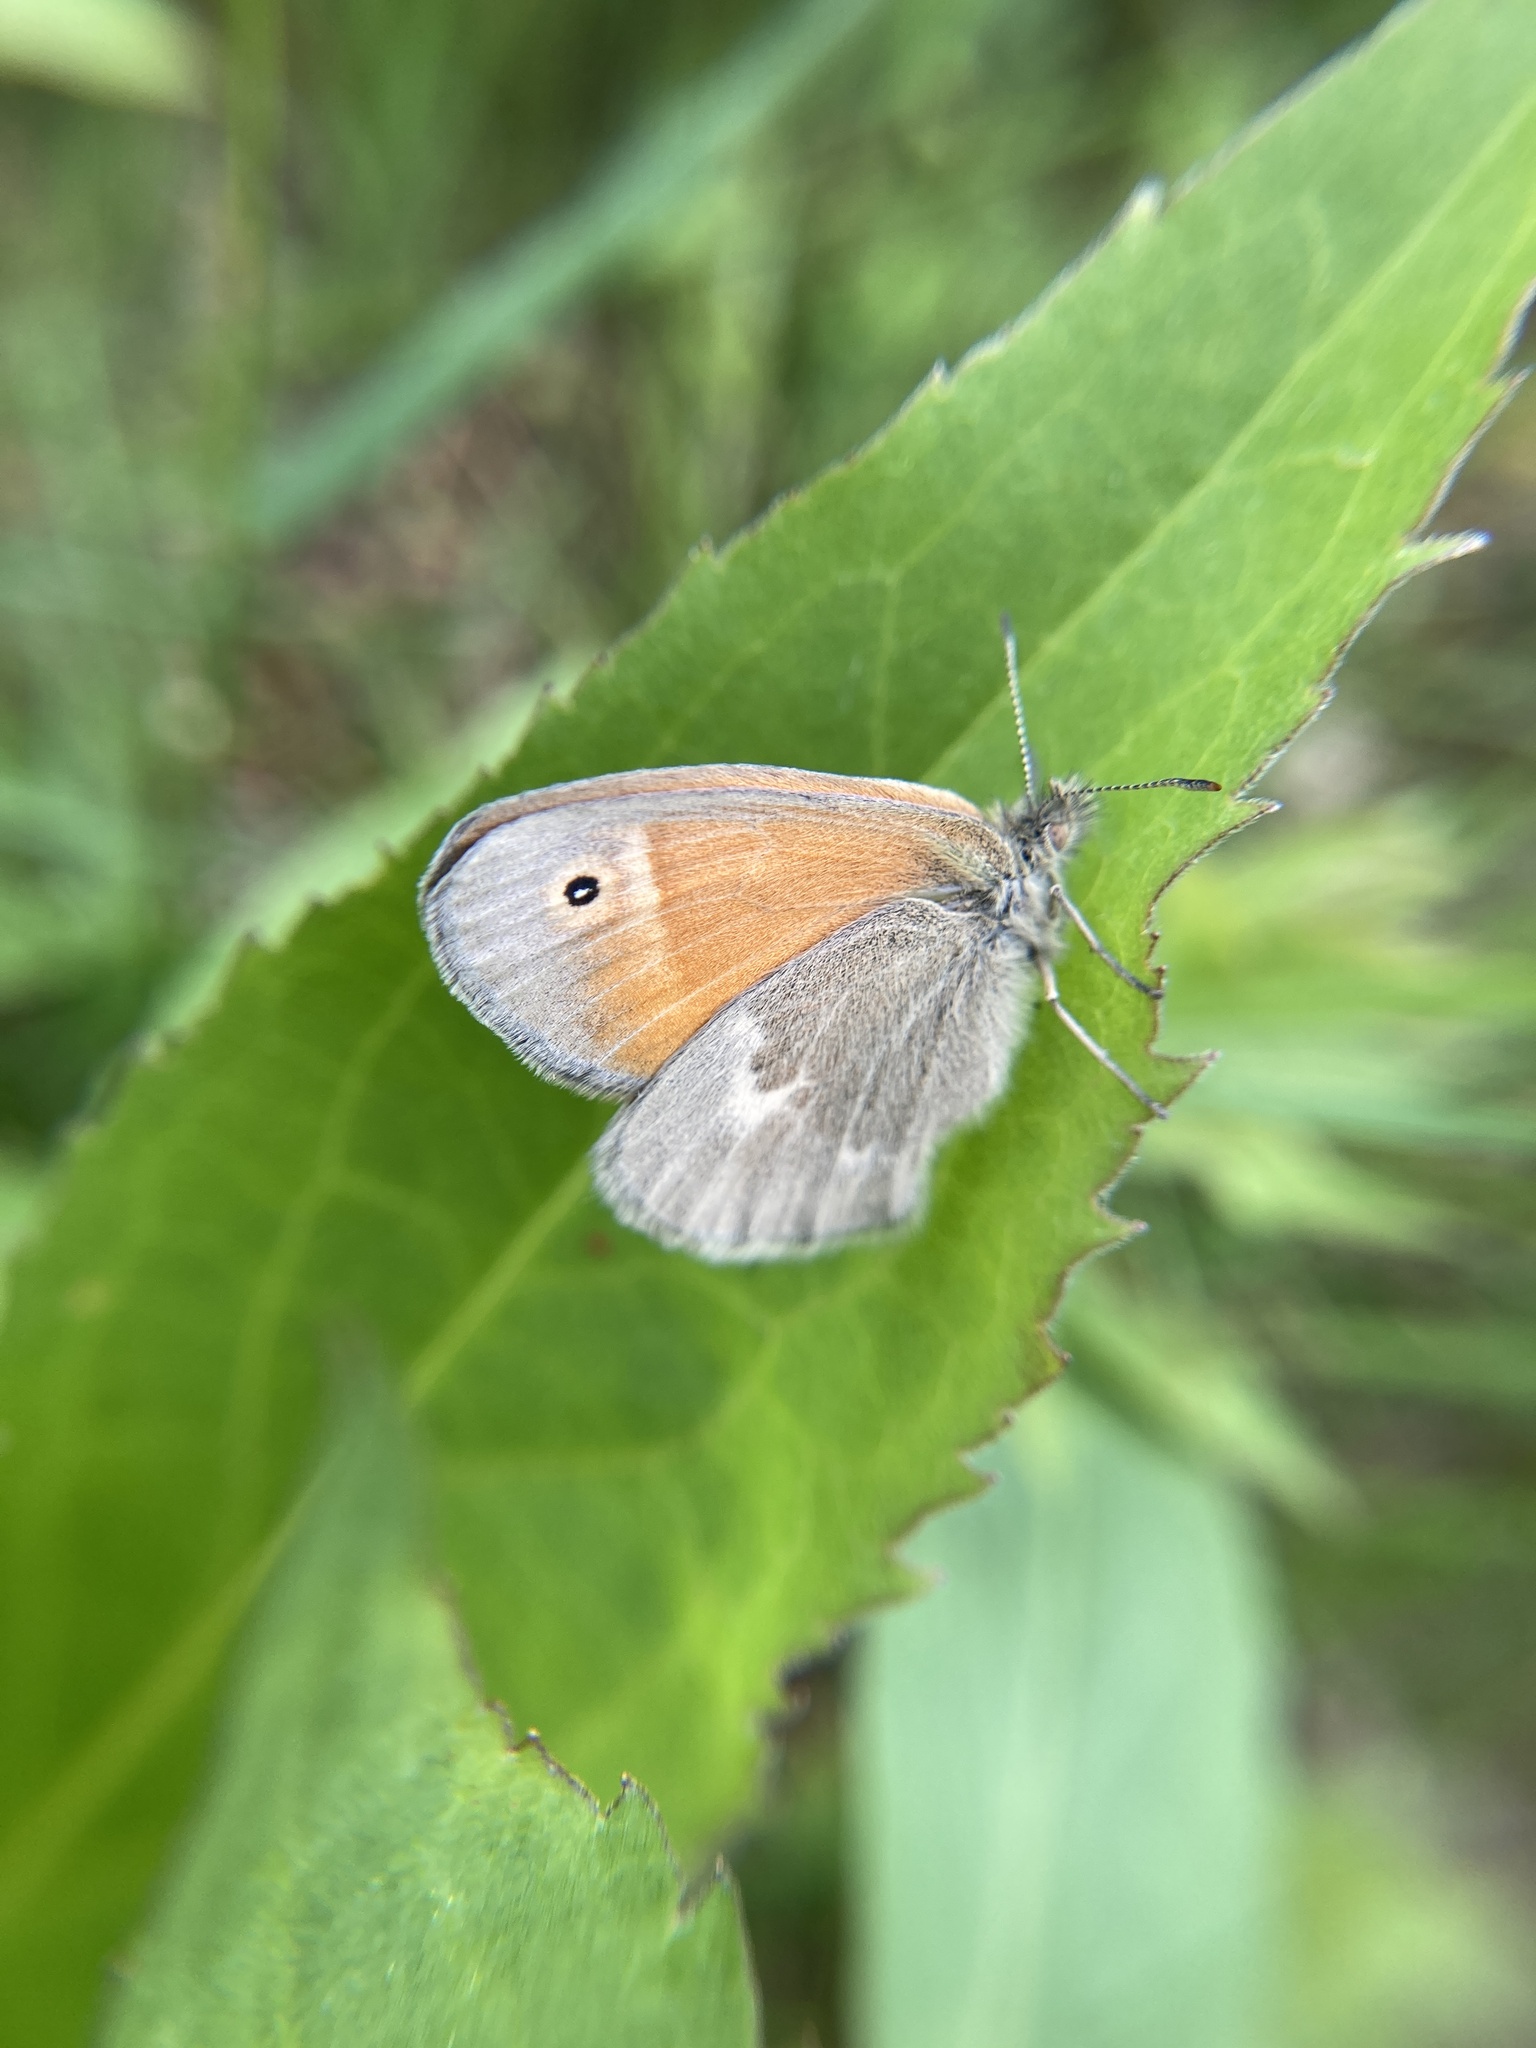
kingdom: Animalia
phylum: Arthropoda
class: Insecta
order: Lepidoptera
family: Nymphalidae
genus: Coenonympha
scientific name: Coenonympha california
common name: Common ringlet
